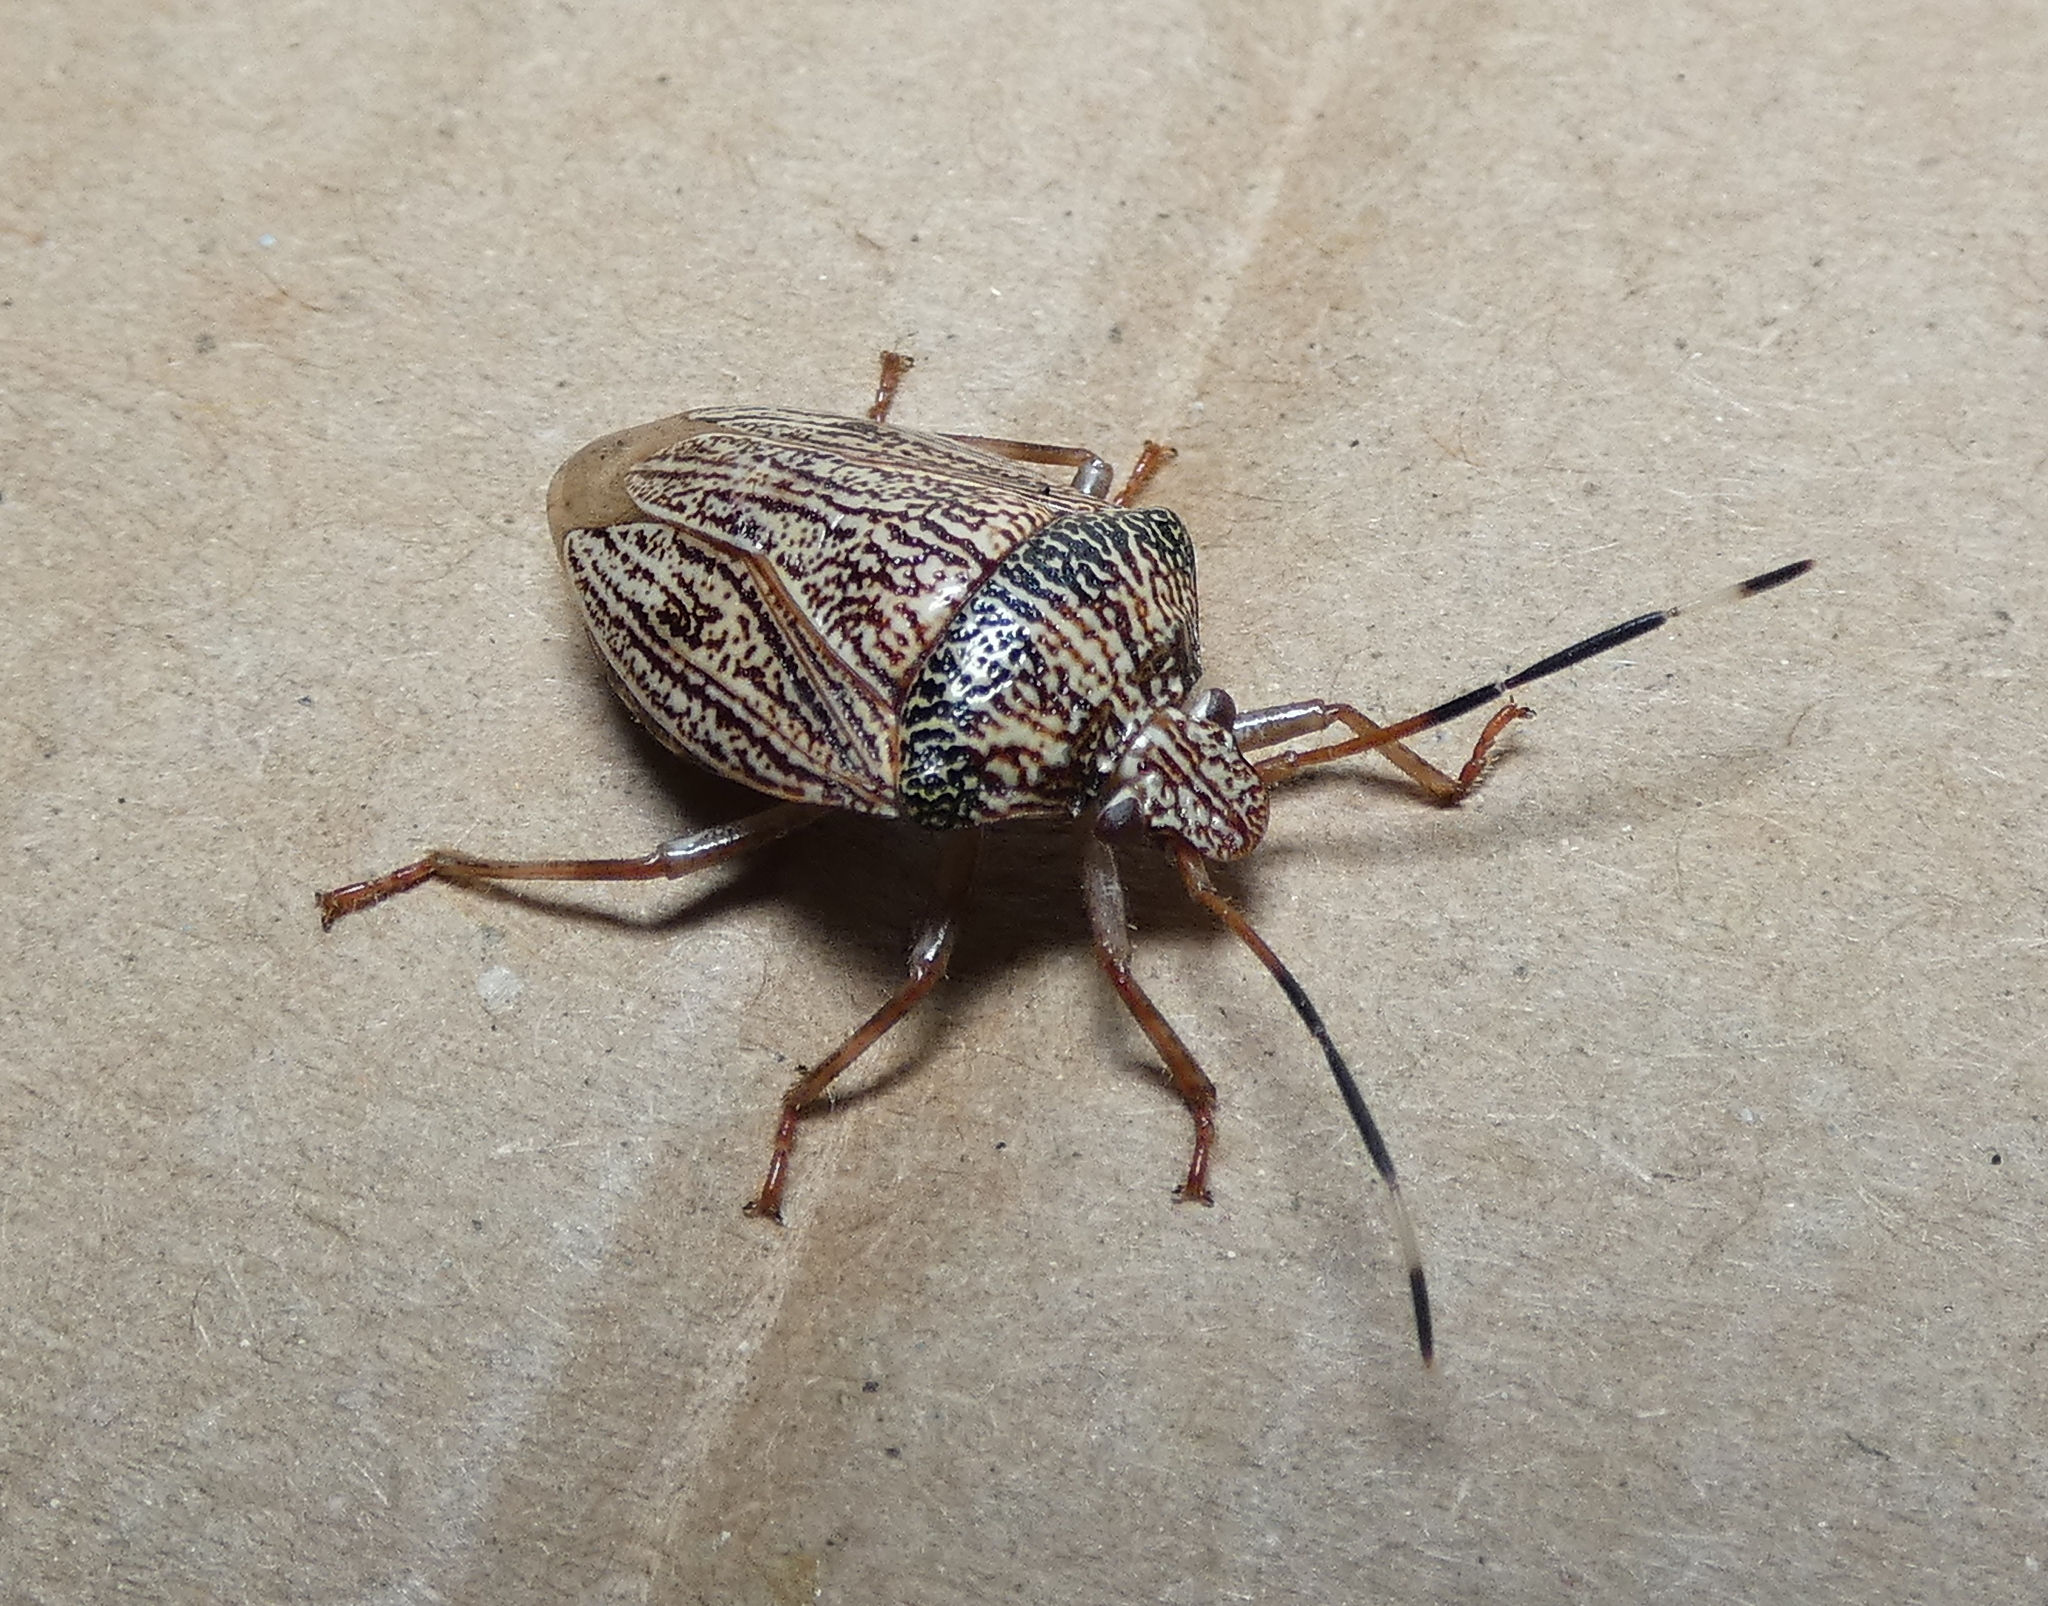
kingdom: Animalia
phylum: Arthropoda
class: Insecta
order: Hemiptera
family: Pentatomidae
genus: Antiteuchus
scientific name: Antiteuchus macraspis
